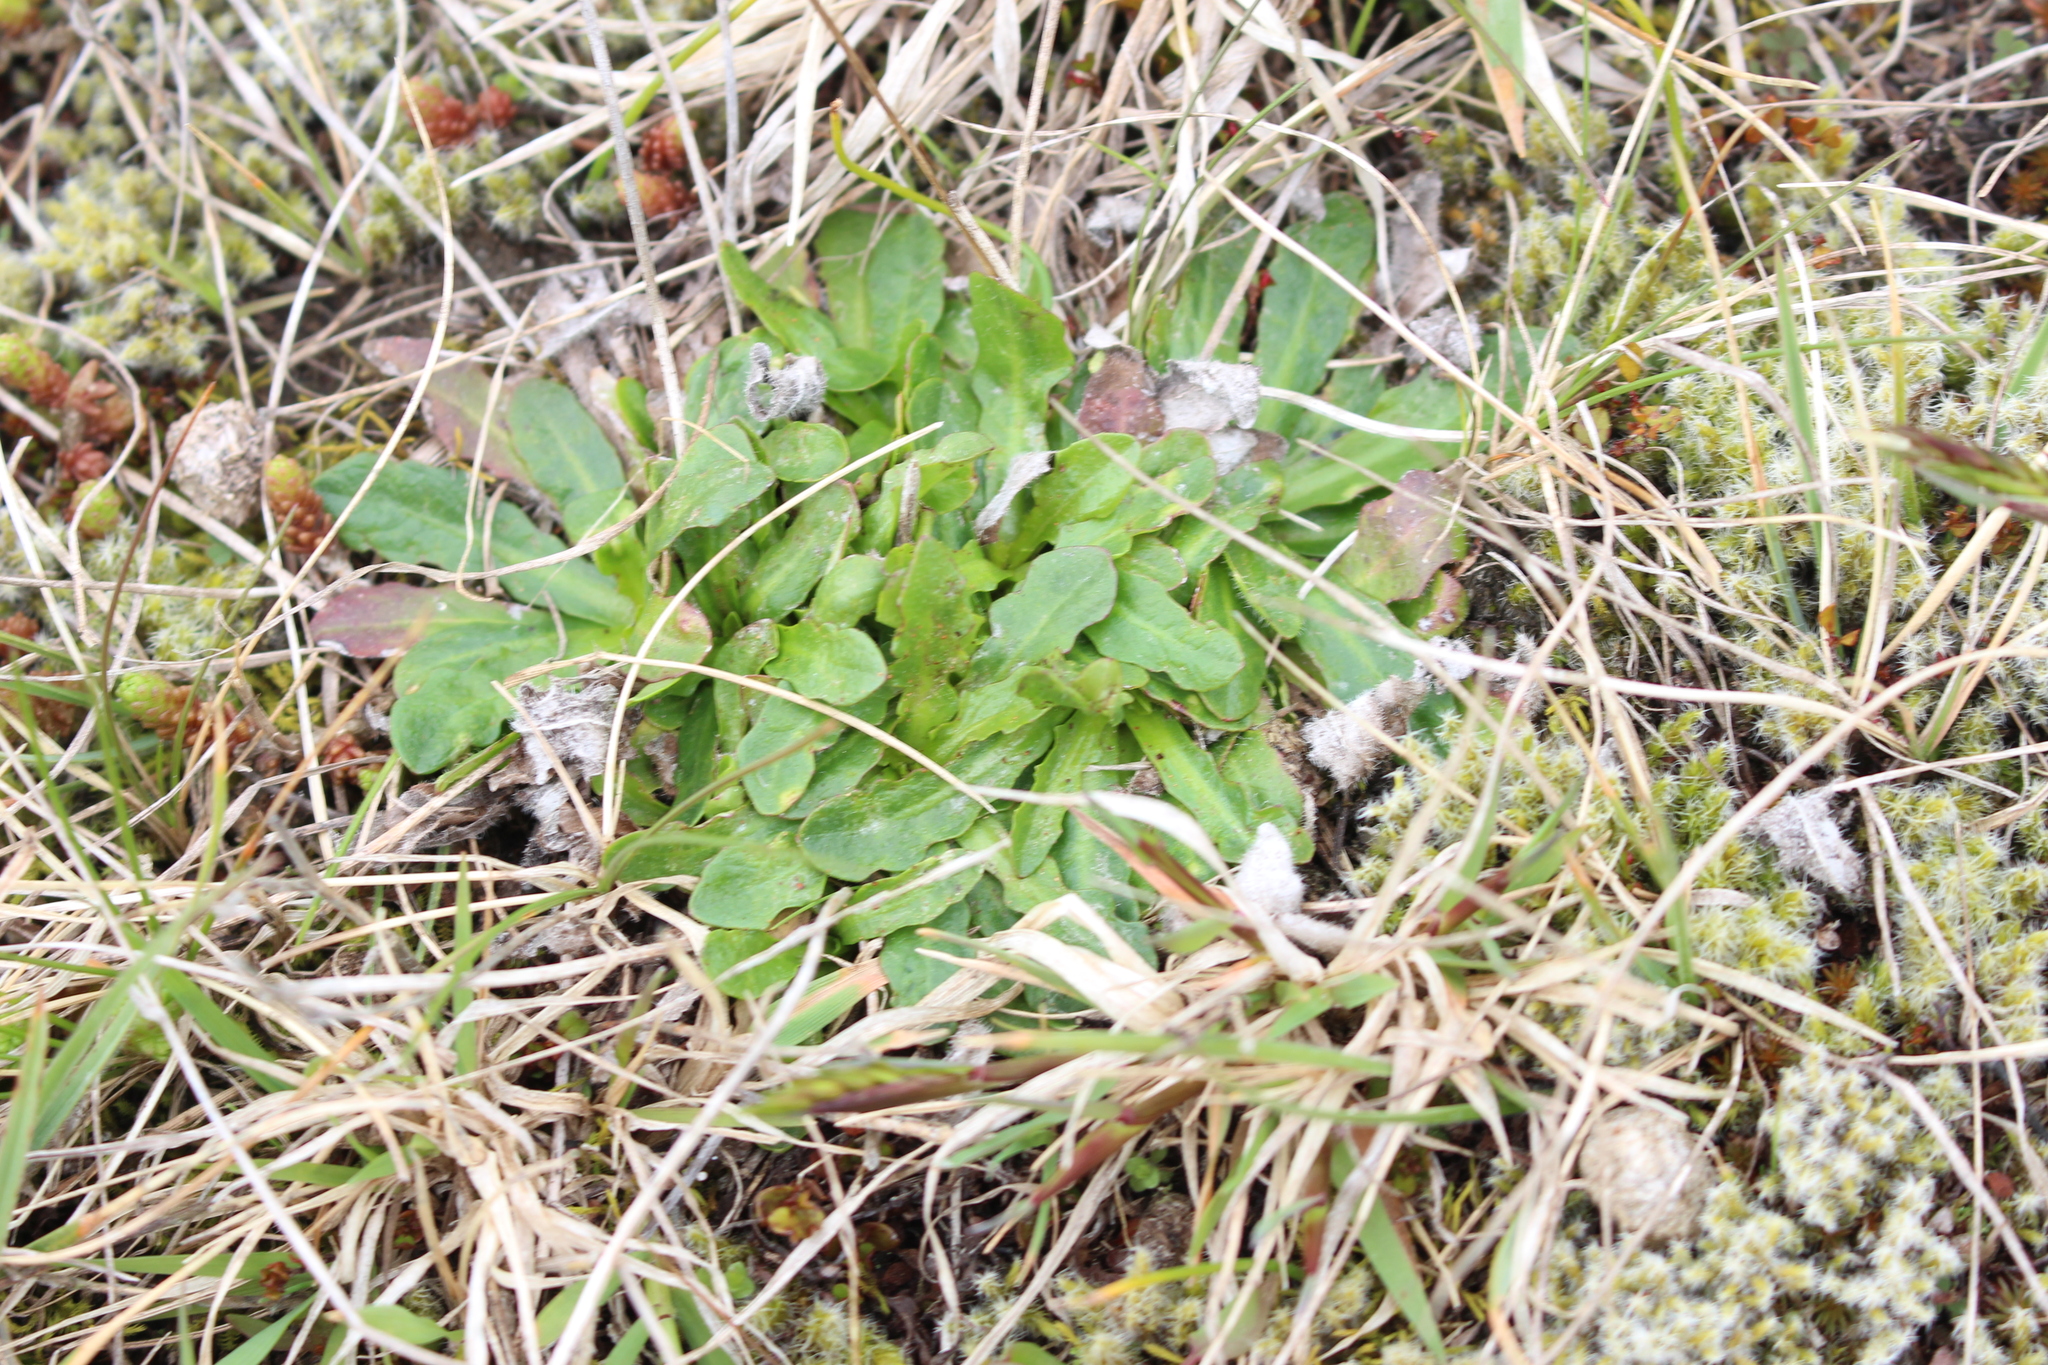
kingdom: Plantae
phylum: Tracheophyta
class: Magnoliopsida
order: Asterales
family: Asteraceae
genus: Hypochaeris
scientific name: Hypochaeris radicata
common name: Flatweed
